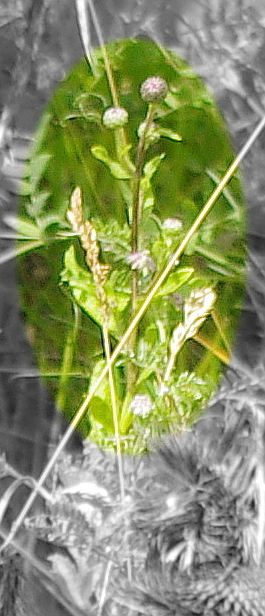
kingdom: Plantae
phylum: Tracheophyta
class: Magnoliopsida
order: Asterales
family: Asteraceae
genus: Cirsium
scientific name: Cirsium arvense
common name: Creeping thistle
